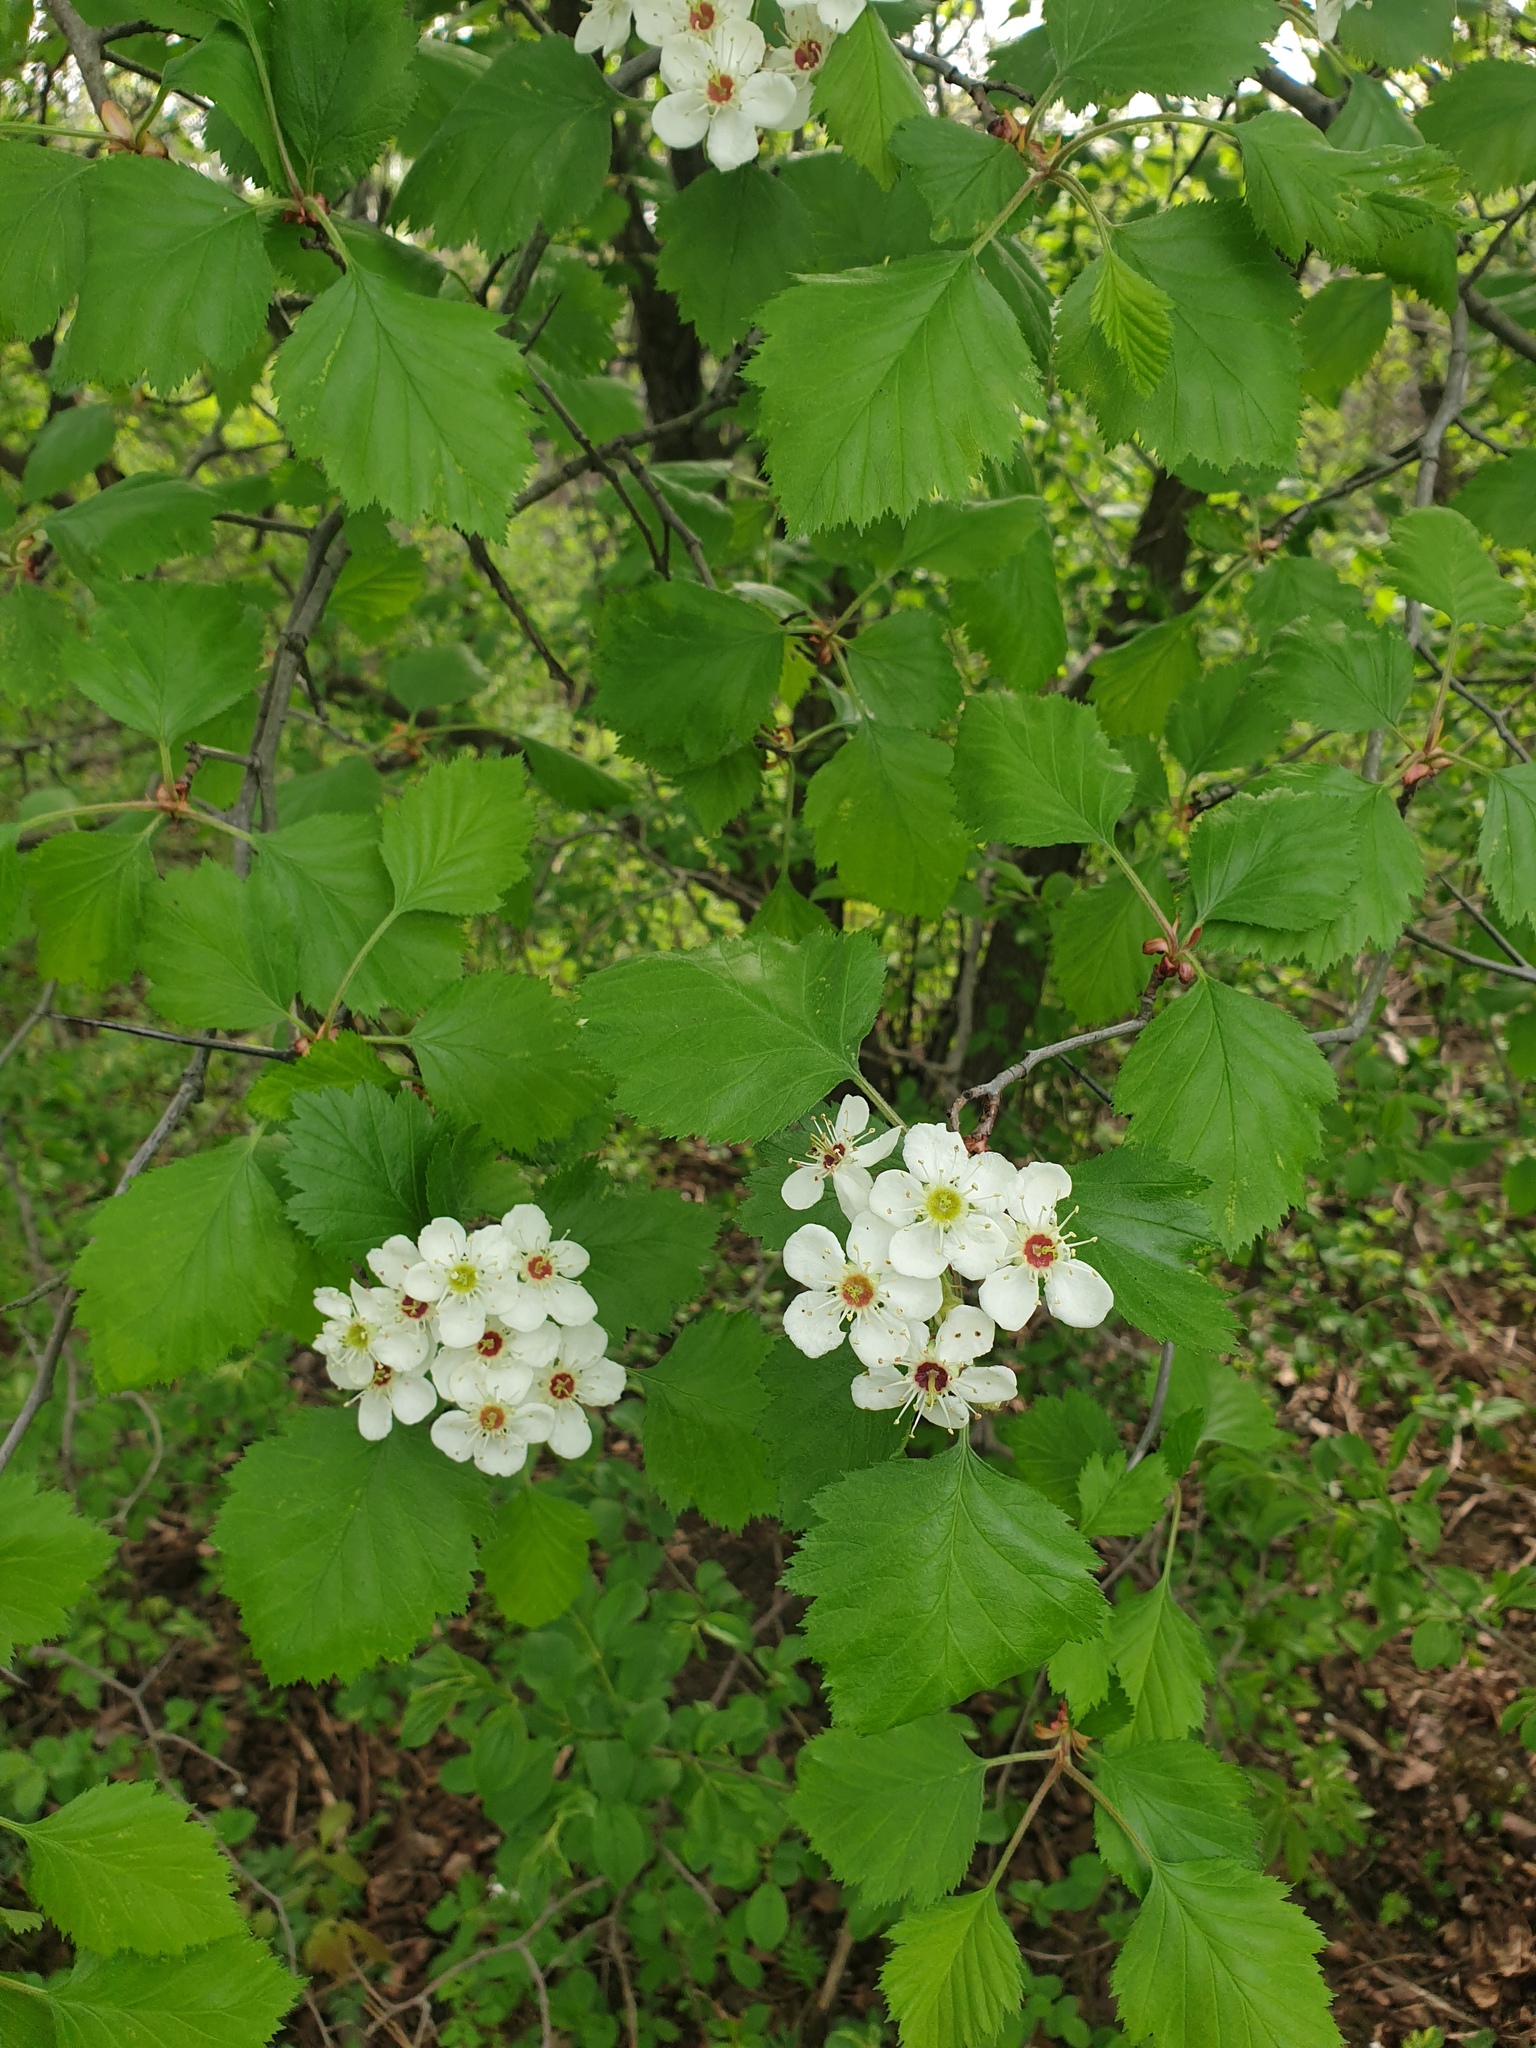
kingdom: Plantae
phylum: Tracheophyta
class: Magnoliopsida
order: Rosales
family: Rosaceae
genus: Crataegus
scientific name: Crataegus submollis
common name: Hairy cockspurthorn
